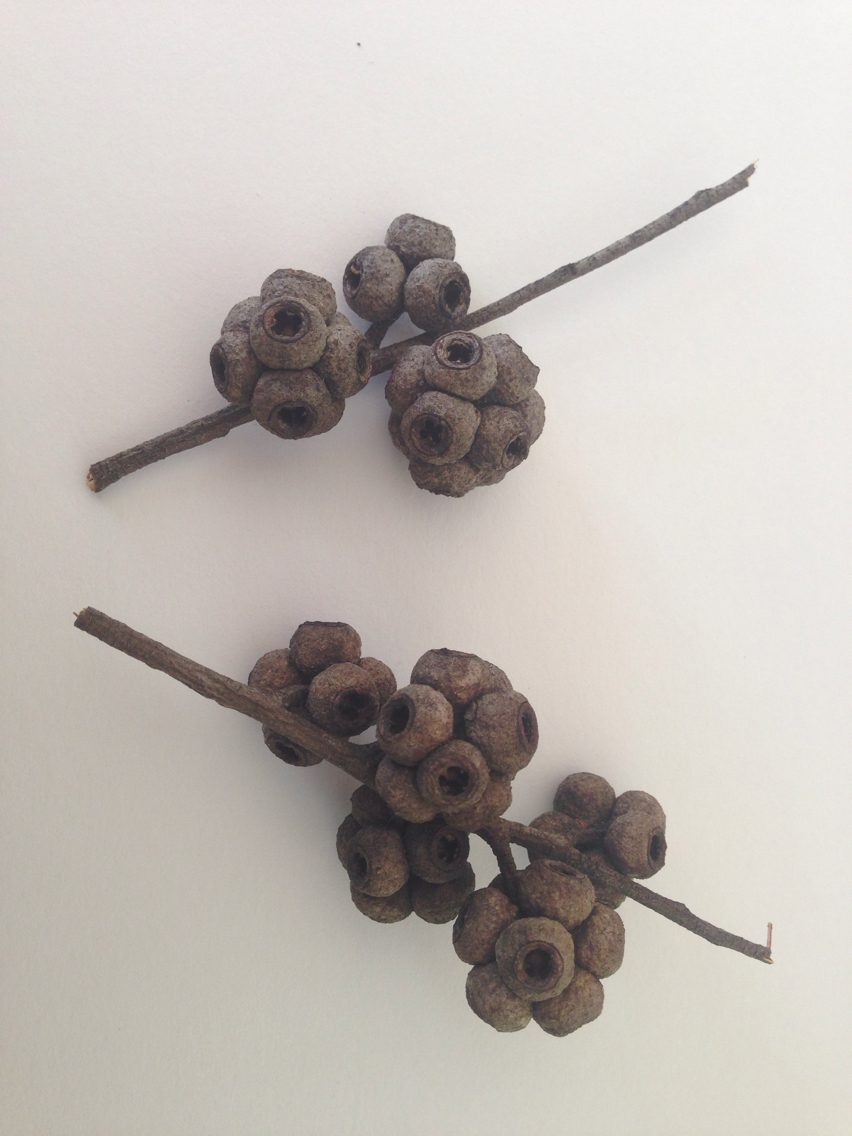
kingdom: Plantae
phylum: Tracheophyta
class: Magnoliopsida
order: Myrtales
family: Myrtaceae
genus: Eucalyptus
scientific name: Eucalyptus agglomerata
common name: Blue-leaved stringybark
